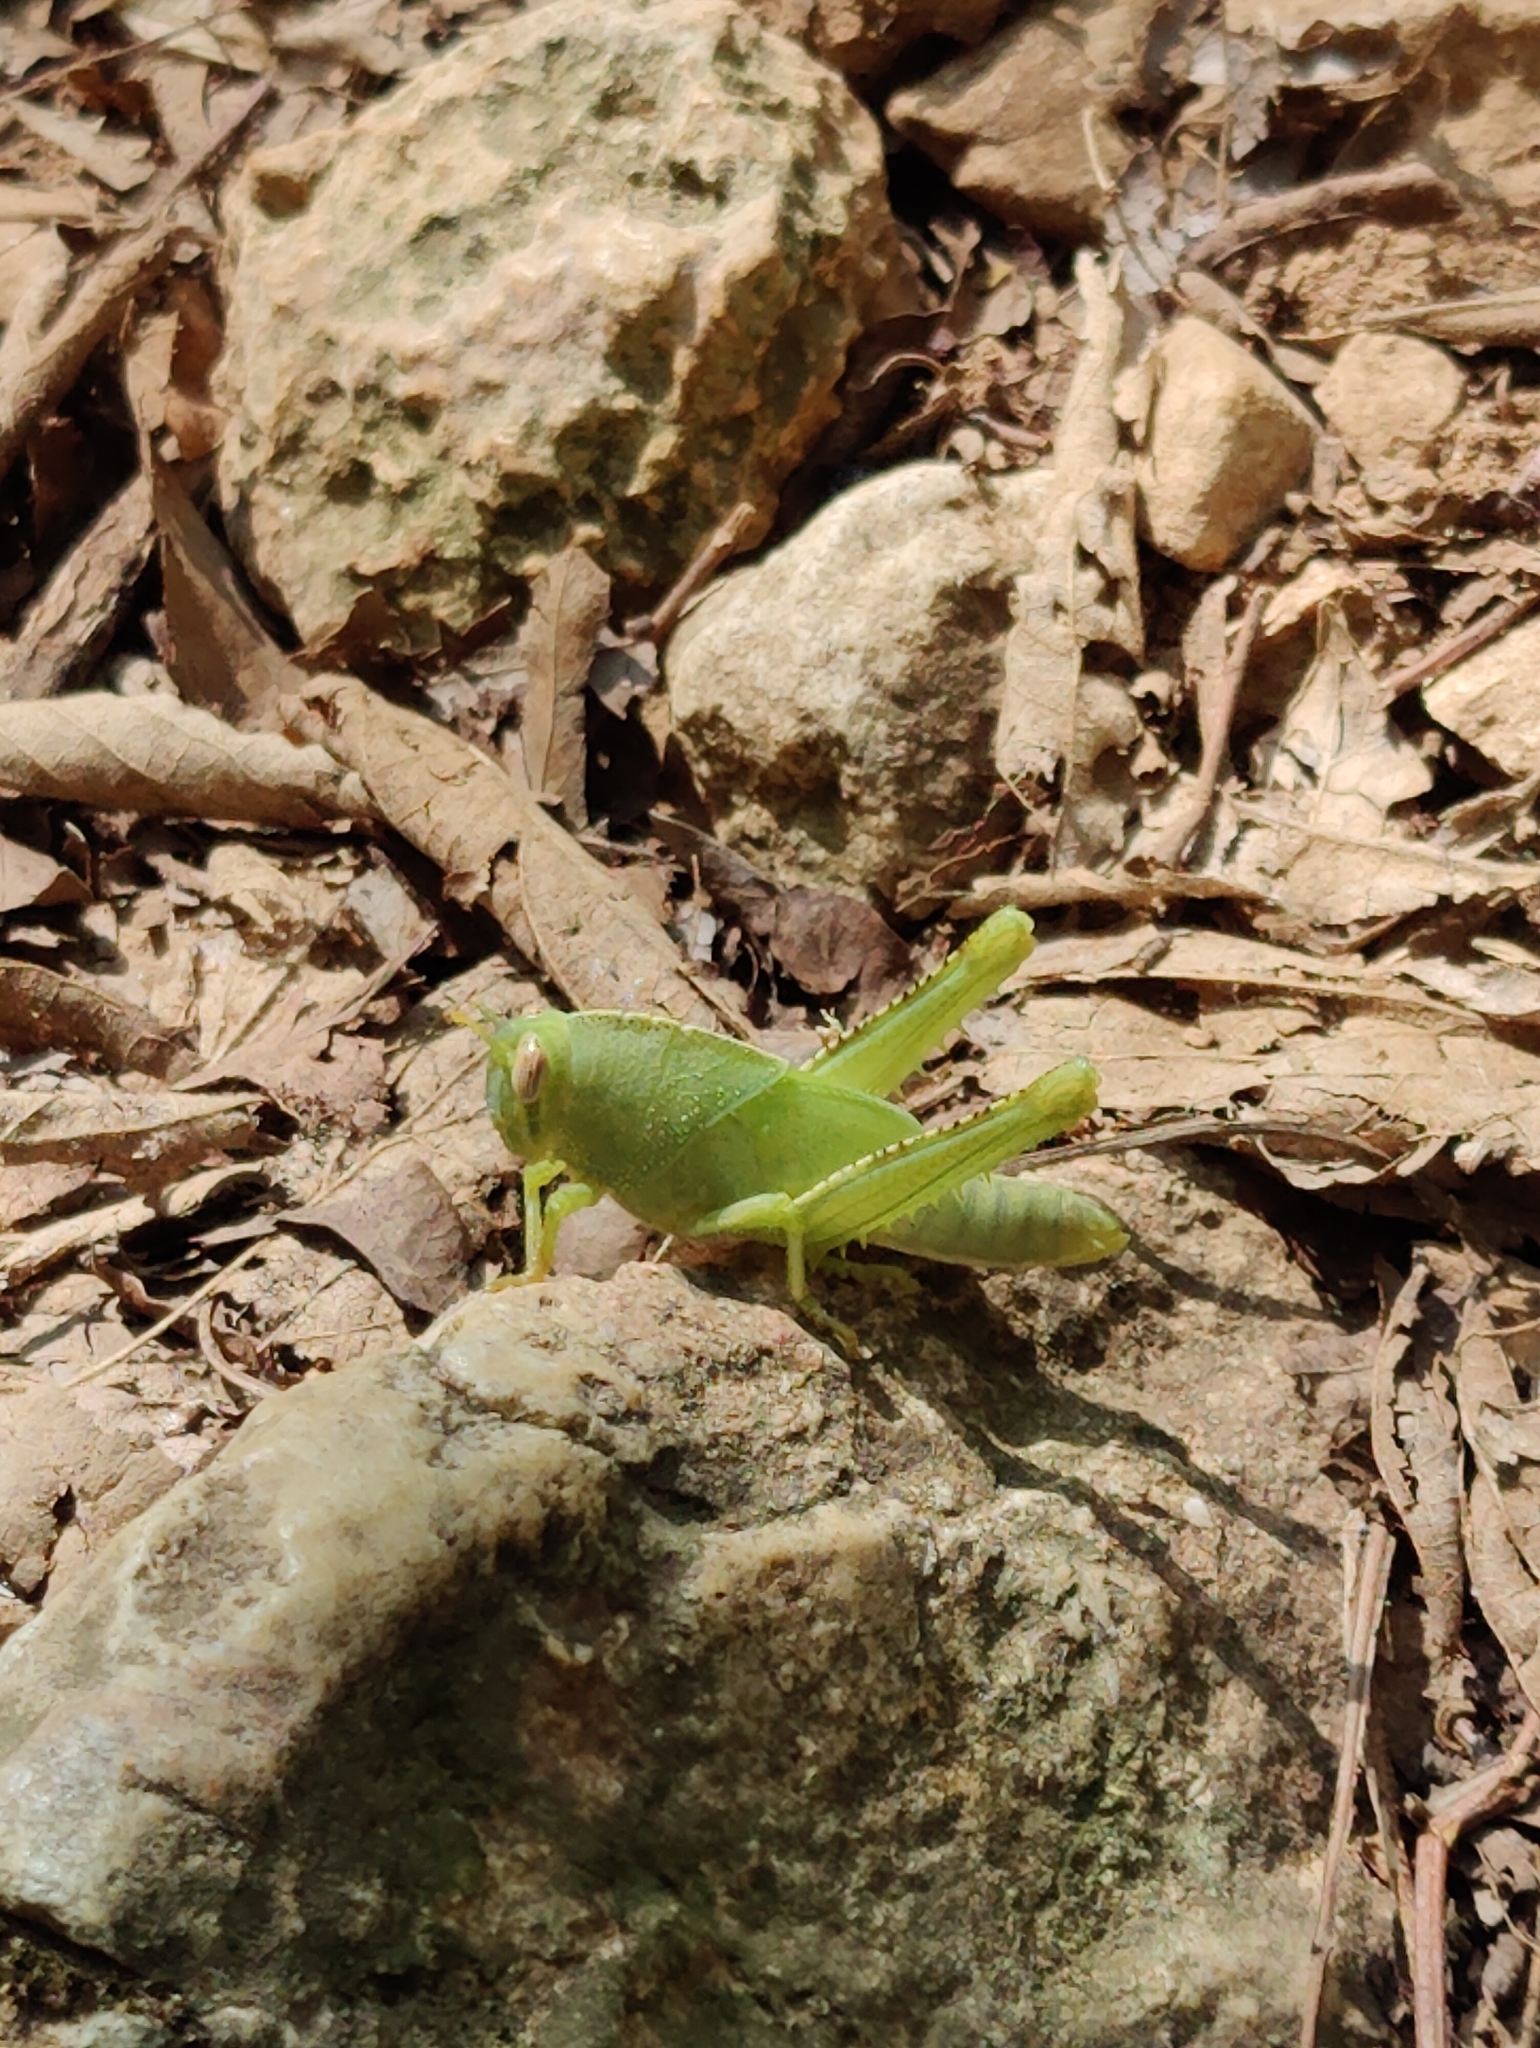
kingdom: Animalia
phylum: Arthropoda
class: Insecta
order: Orthoptera
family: Acrididae
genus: Anacridium
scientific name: Anacridium aegyptium
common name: Egyptian grasshopper
